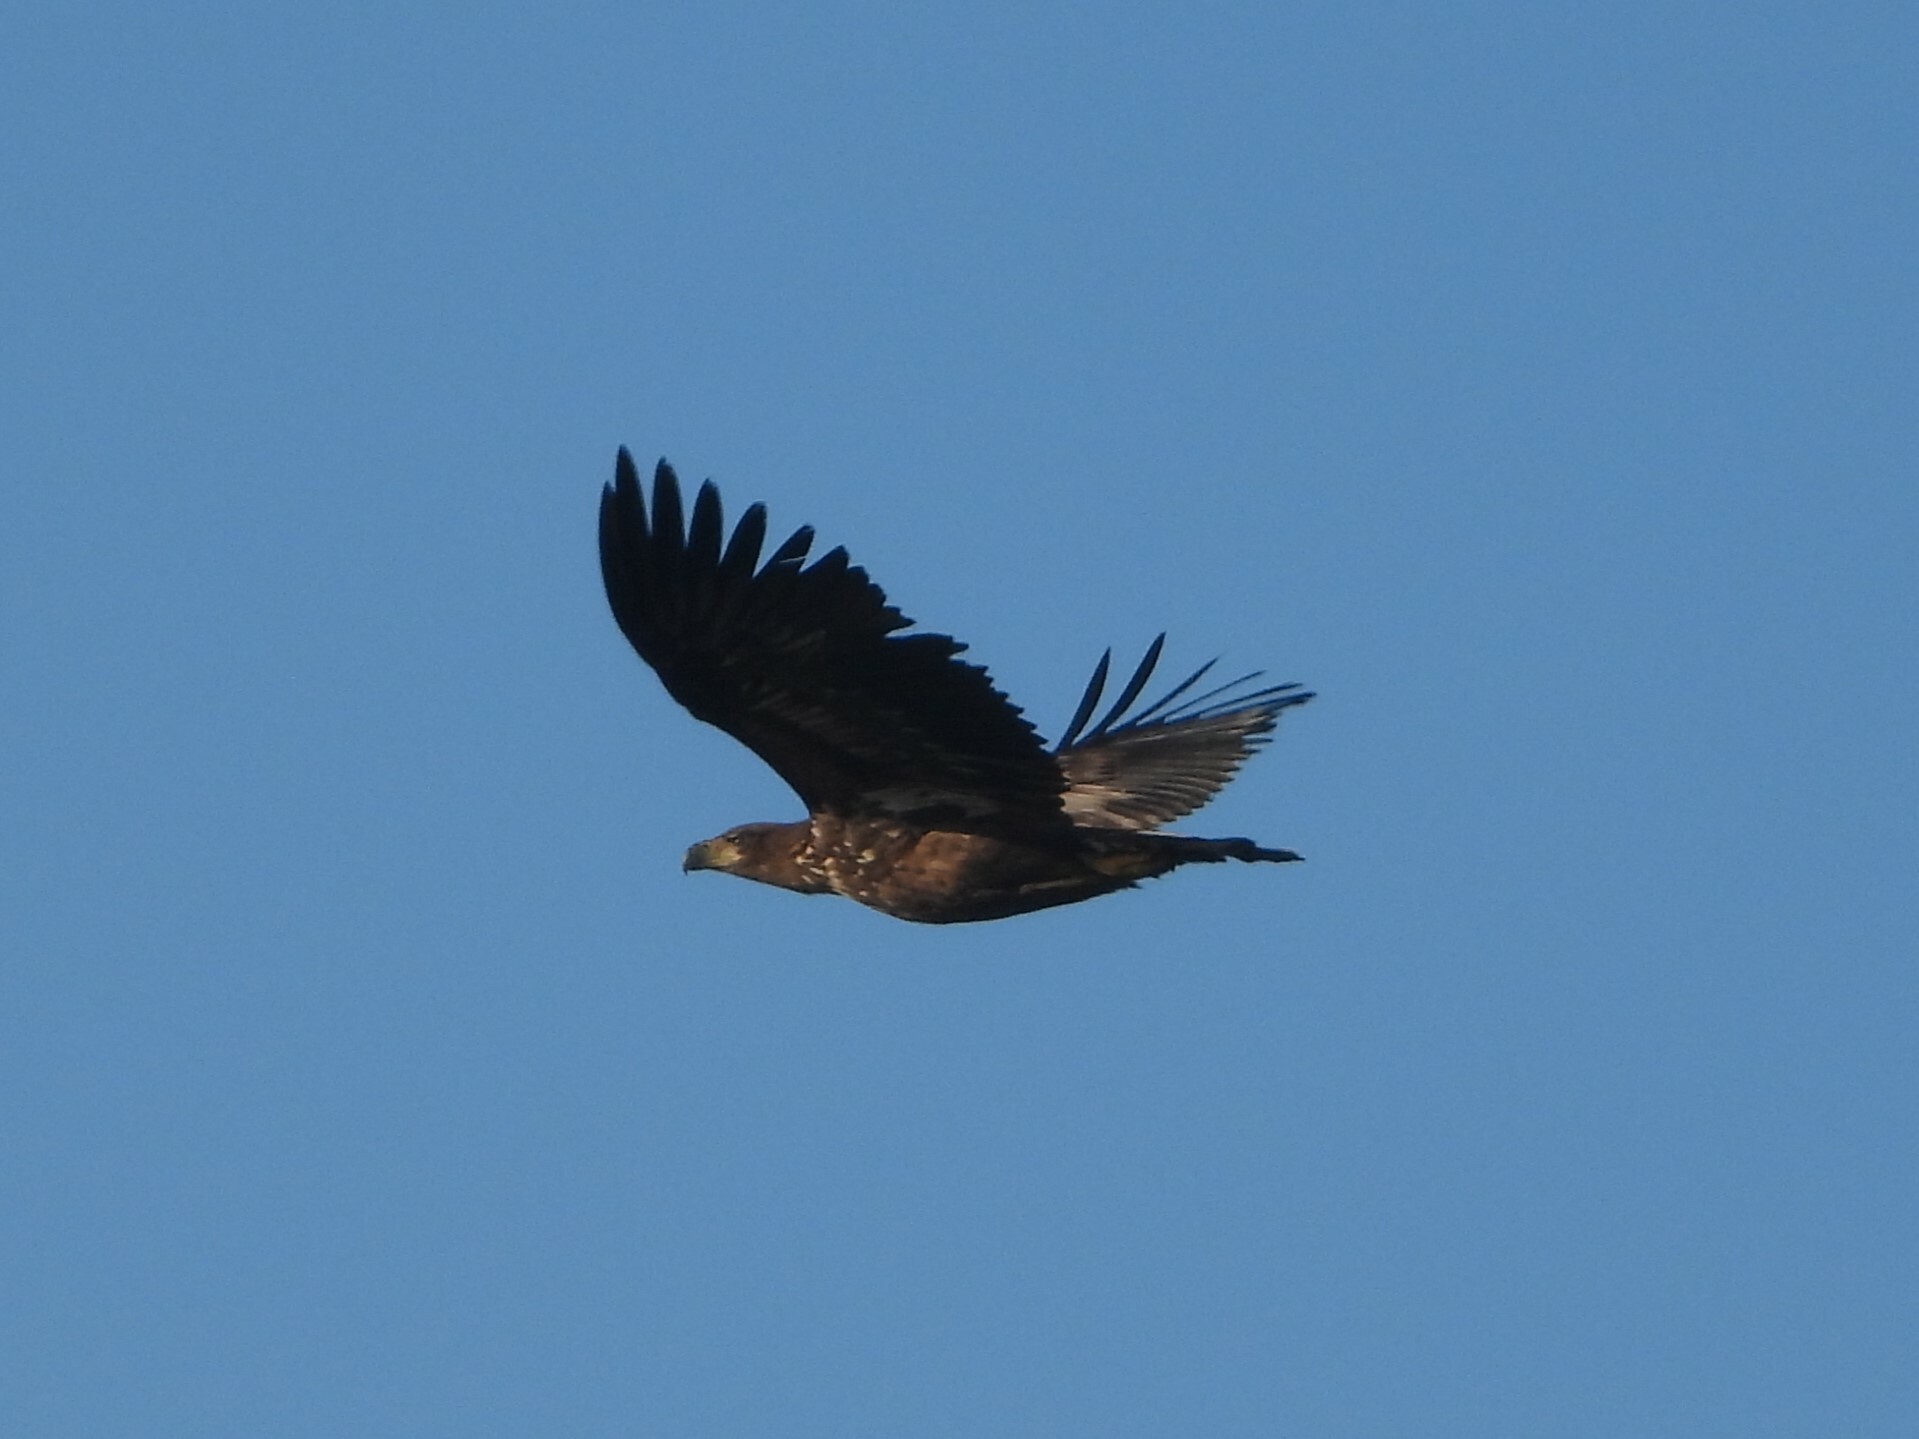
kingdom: Animalia
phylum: Chordata
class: Aves
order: Accipitriformes
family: Accipitridae
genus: Haliaeetus
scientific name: Haliaeetus albicilla
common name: White-tailed eagle
